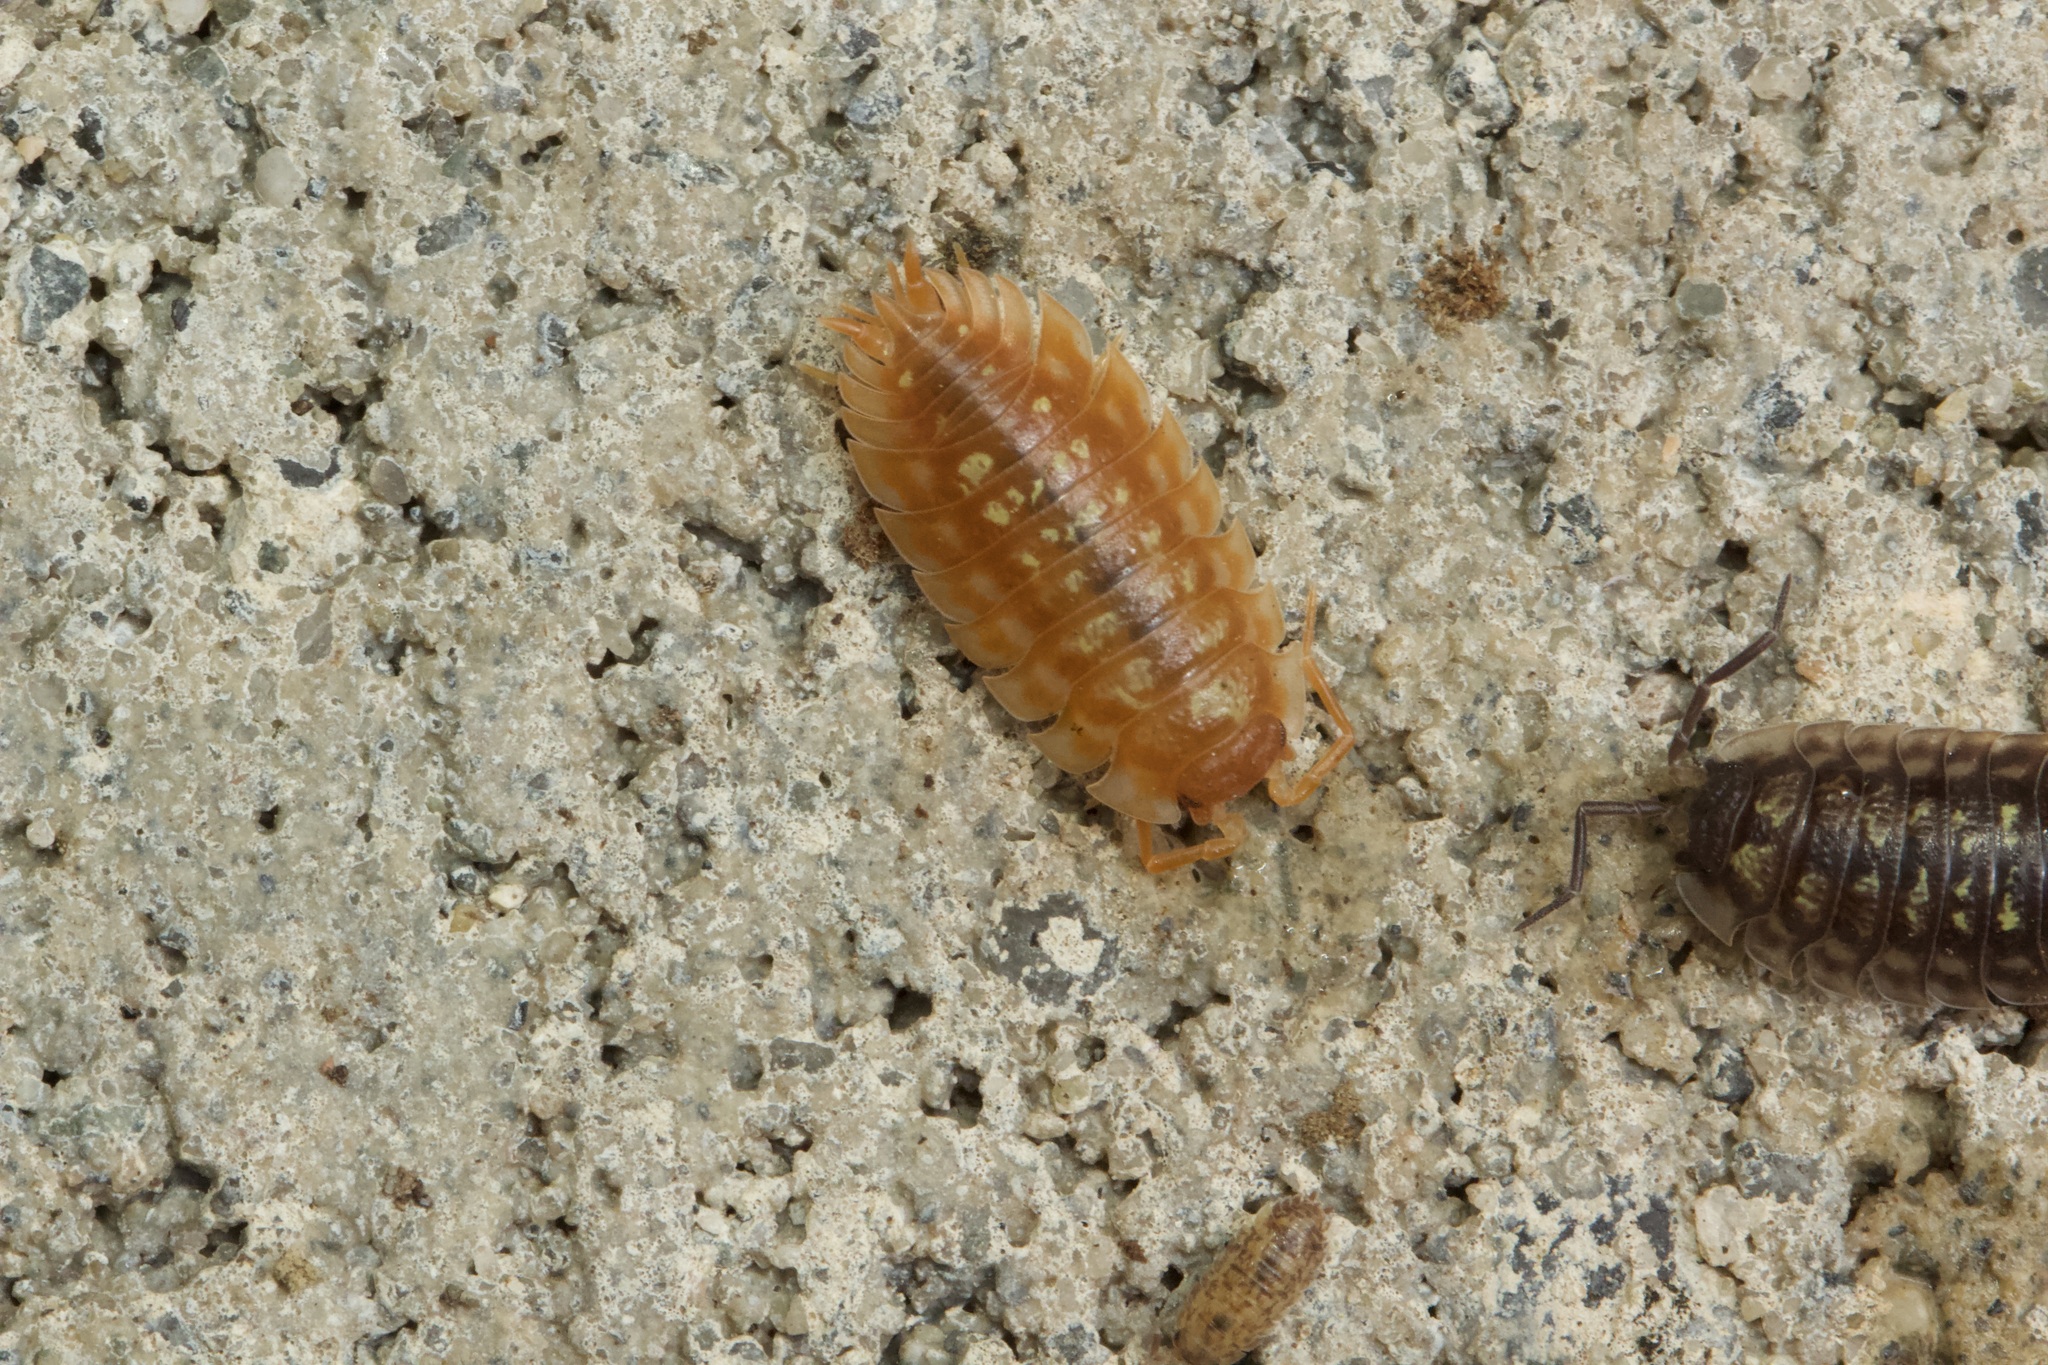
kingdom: Animalia
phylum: Arthropoda
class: Malacostraca
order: Isopoda
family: Oniscidae
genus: Oniscus
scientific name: Oniscus asellus
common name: Common shiny woodlouse
